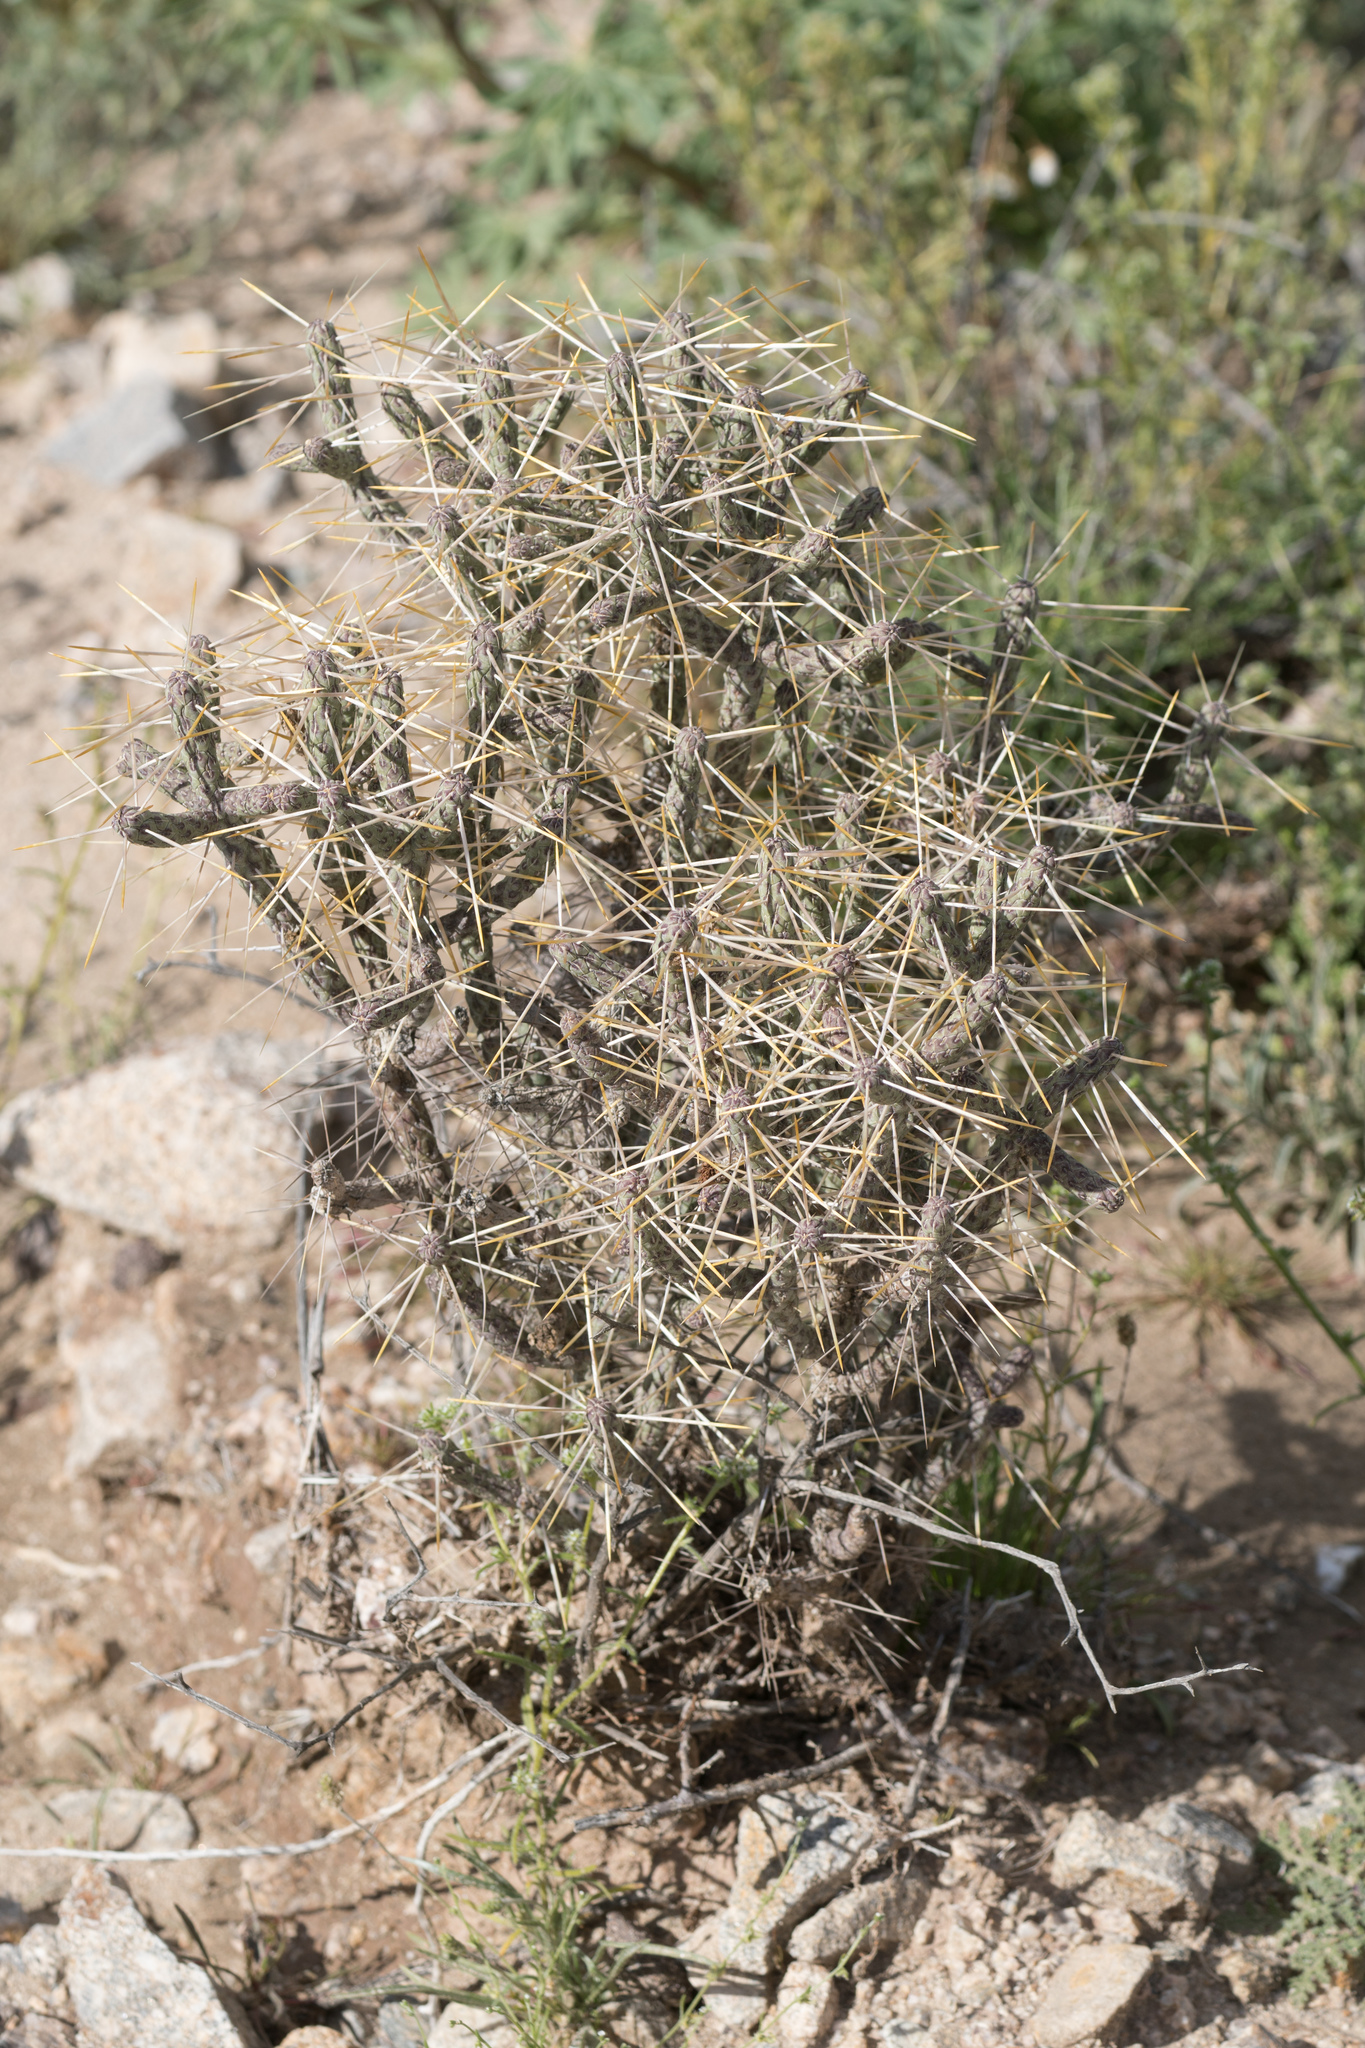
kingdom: Plantae
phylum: Tracheophyta
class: Magnoliopsida
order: Caryophyllales
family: Cactaceae
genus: Cylindropuntia
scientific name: Cylindropuntia ramosissima
